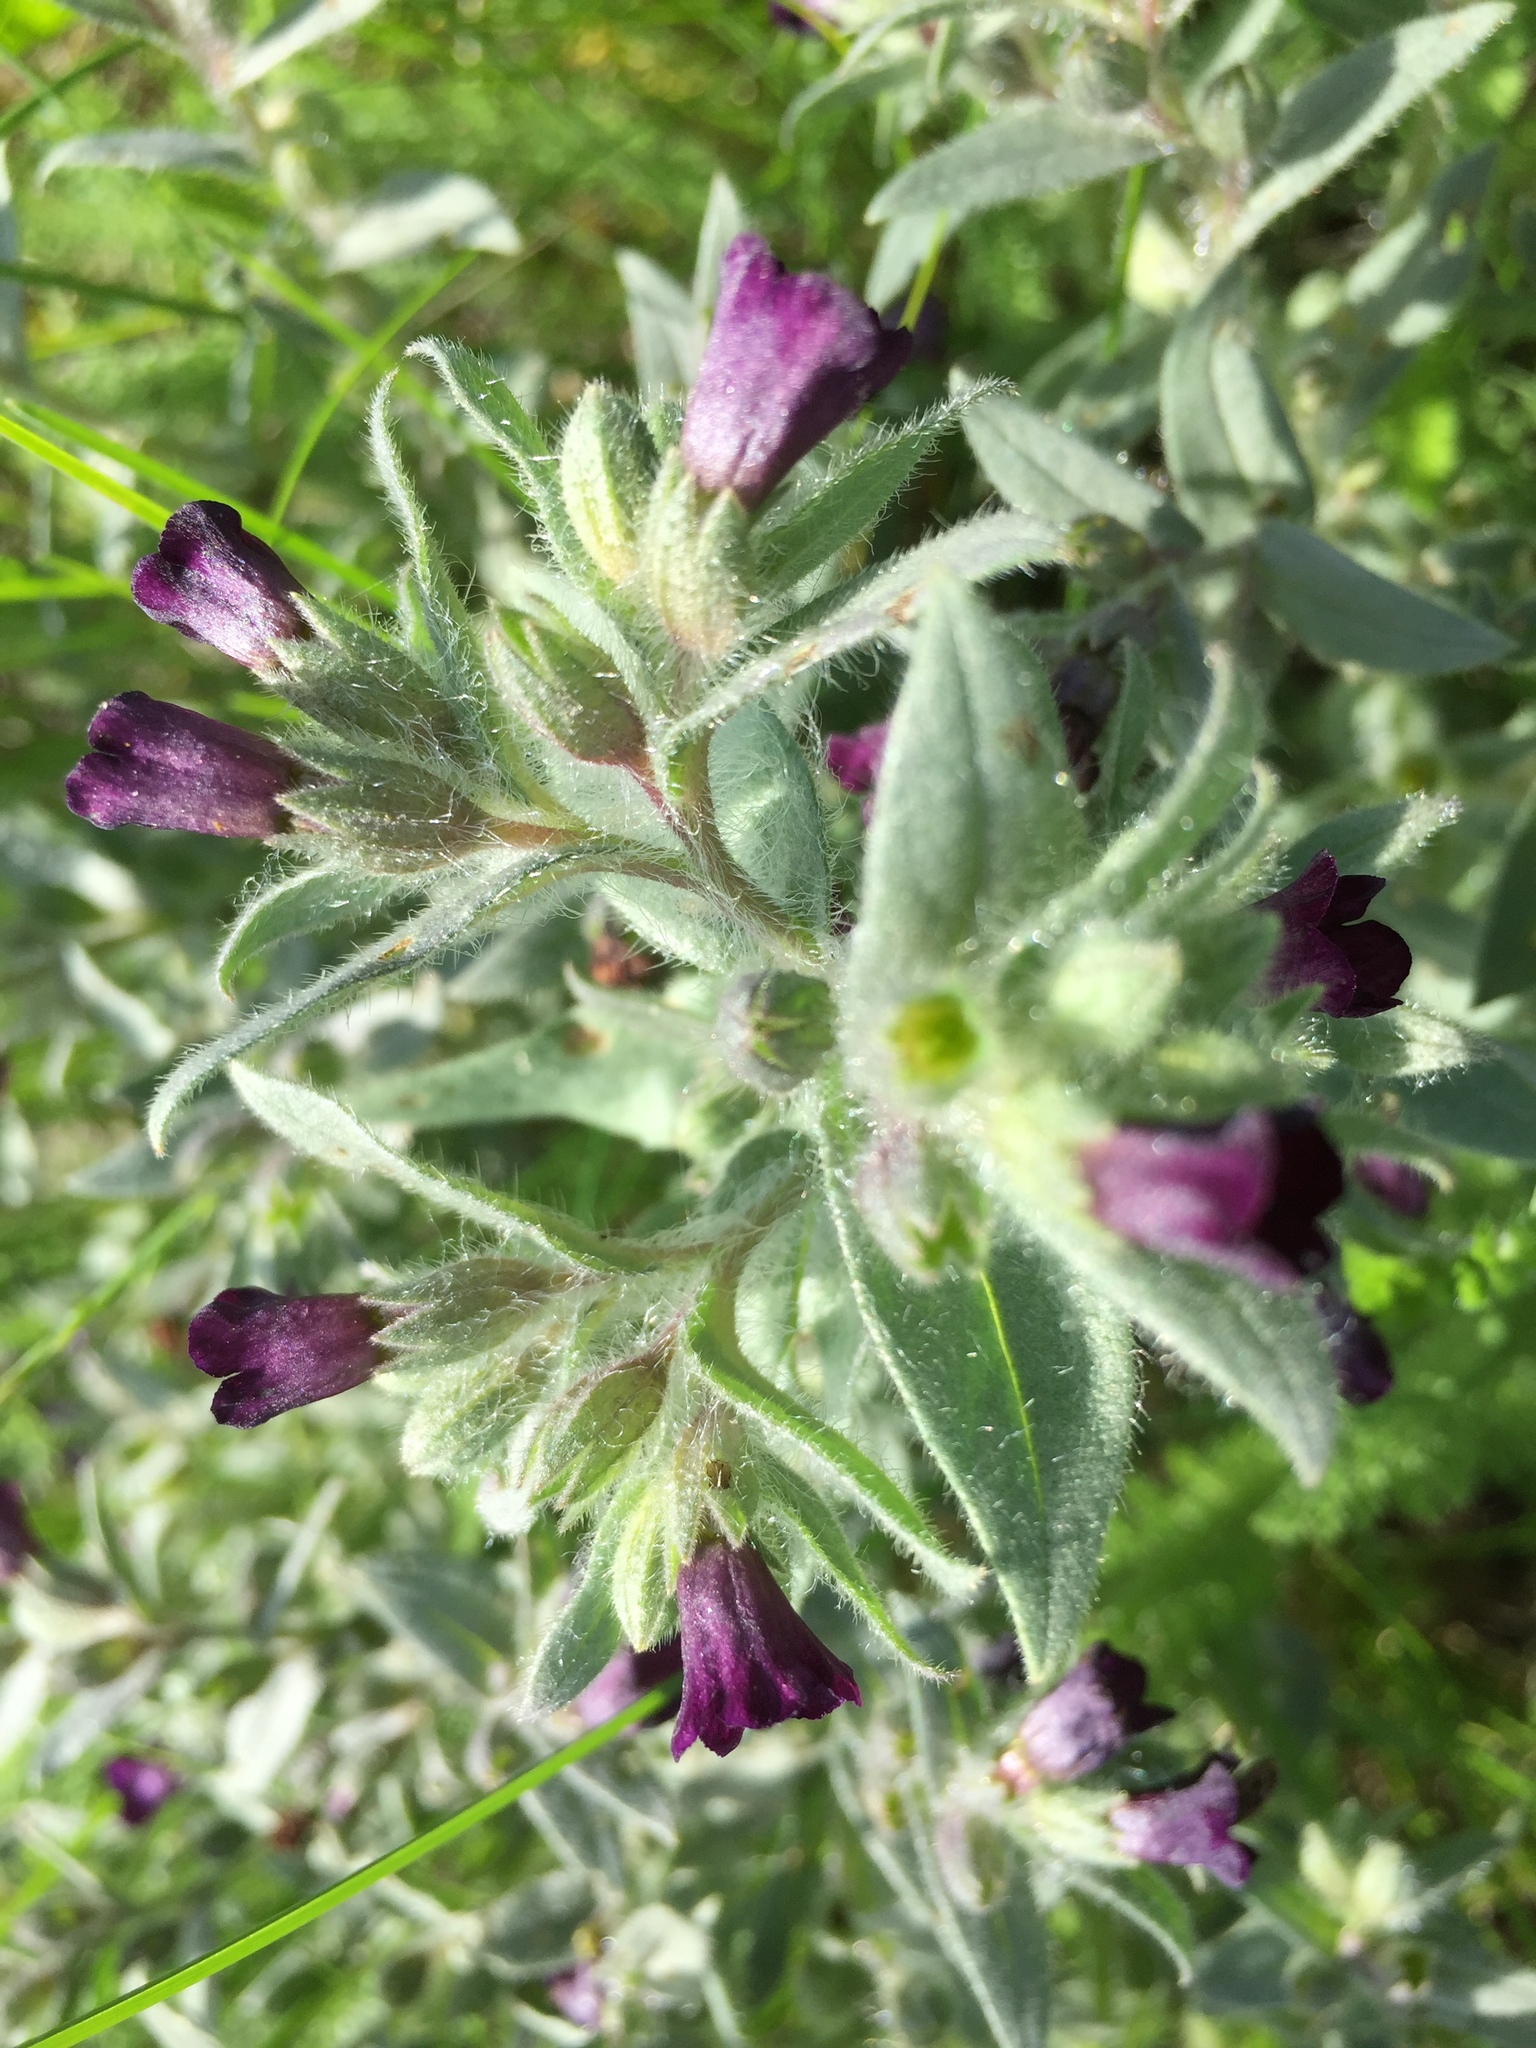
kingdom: Plantae
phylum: Tracheophyta
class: Magnoliopsida
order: Boraginales
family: Boraginaceae
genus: Nonea
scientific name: Nonea pulla
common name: Brown nonea
